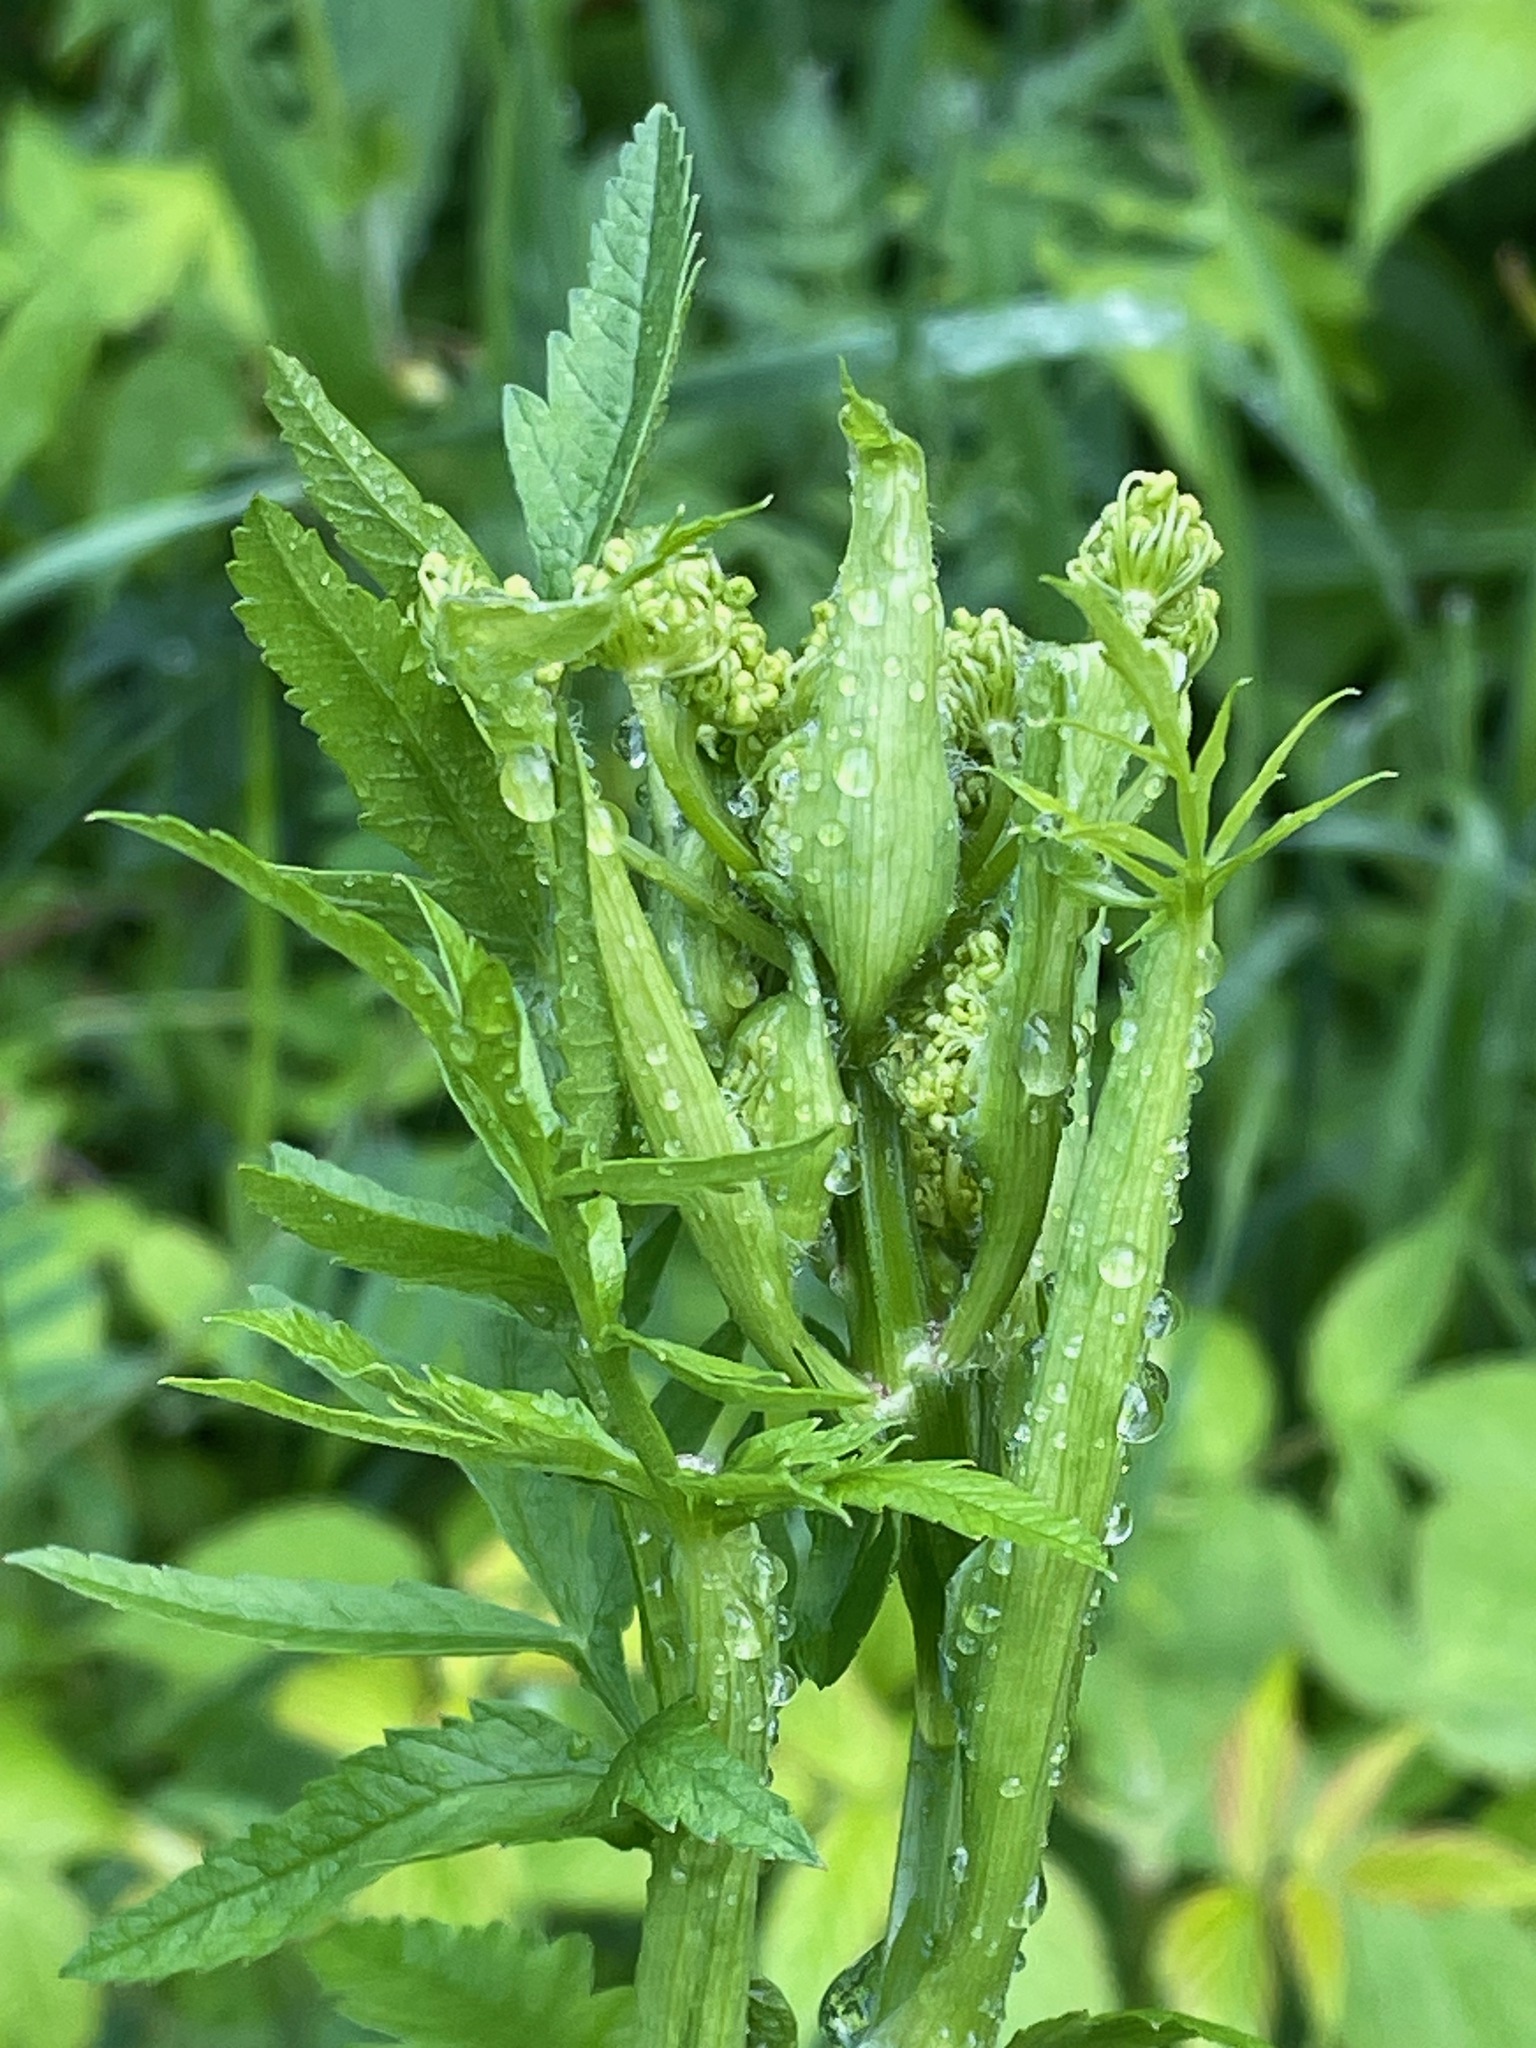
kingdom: Plantae
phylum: Tracheophyta
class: Magnoliopsida
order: Apiales
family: Apiaceae
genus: Pastinaca
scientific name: Pastinaca sativa
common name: Wild parsnip
